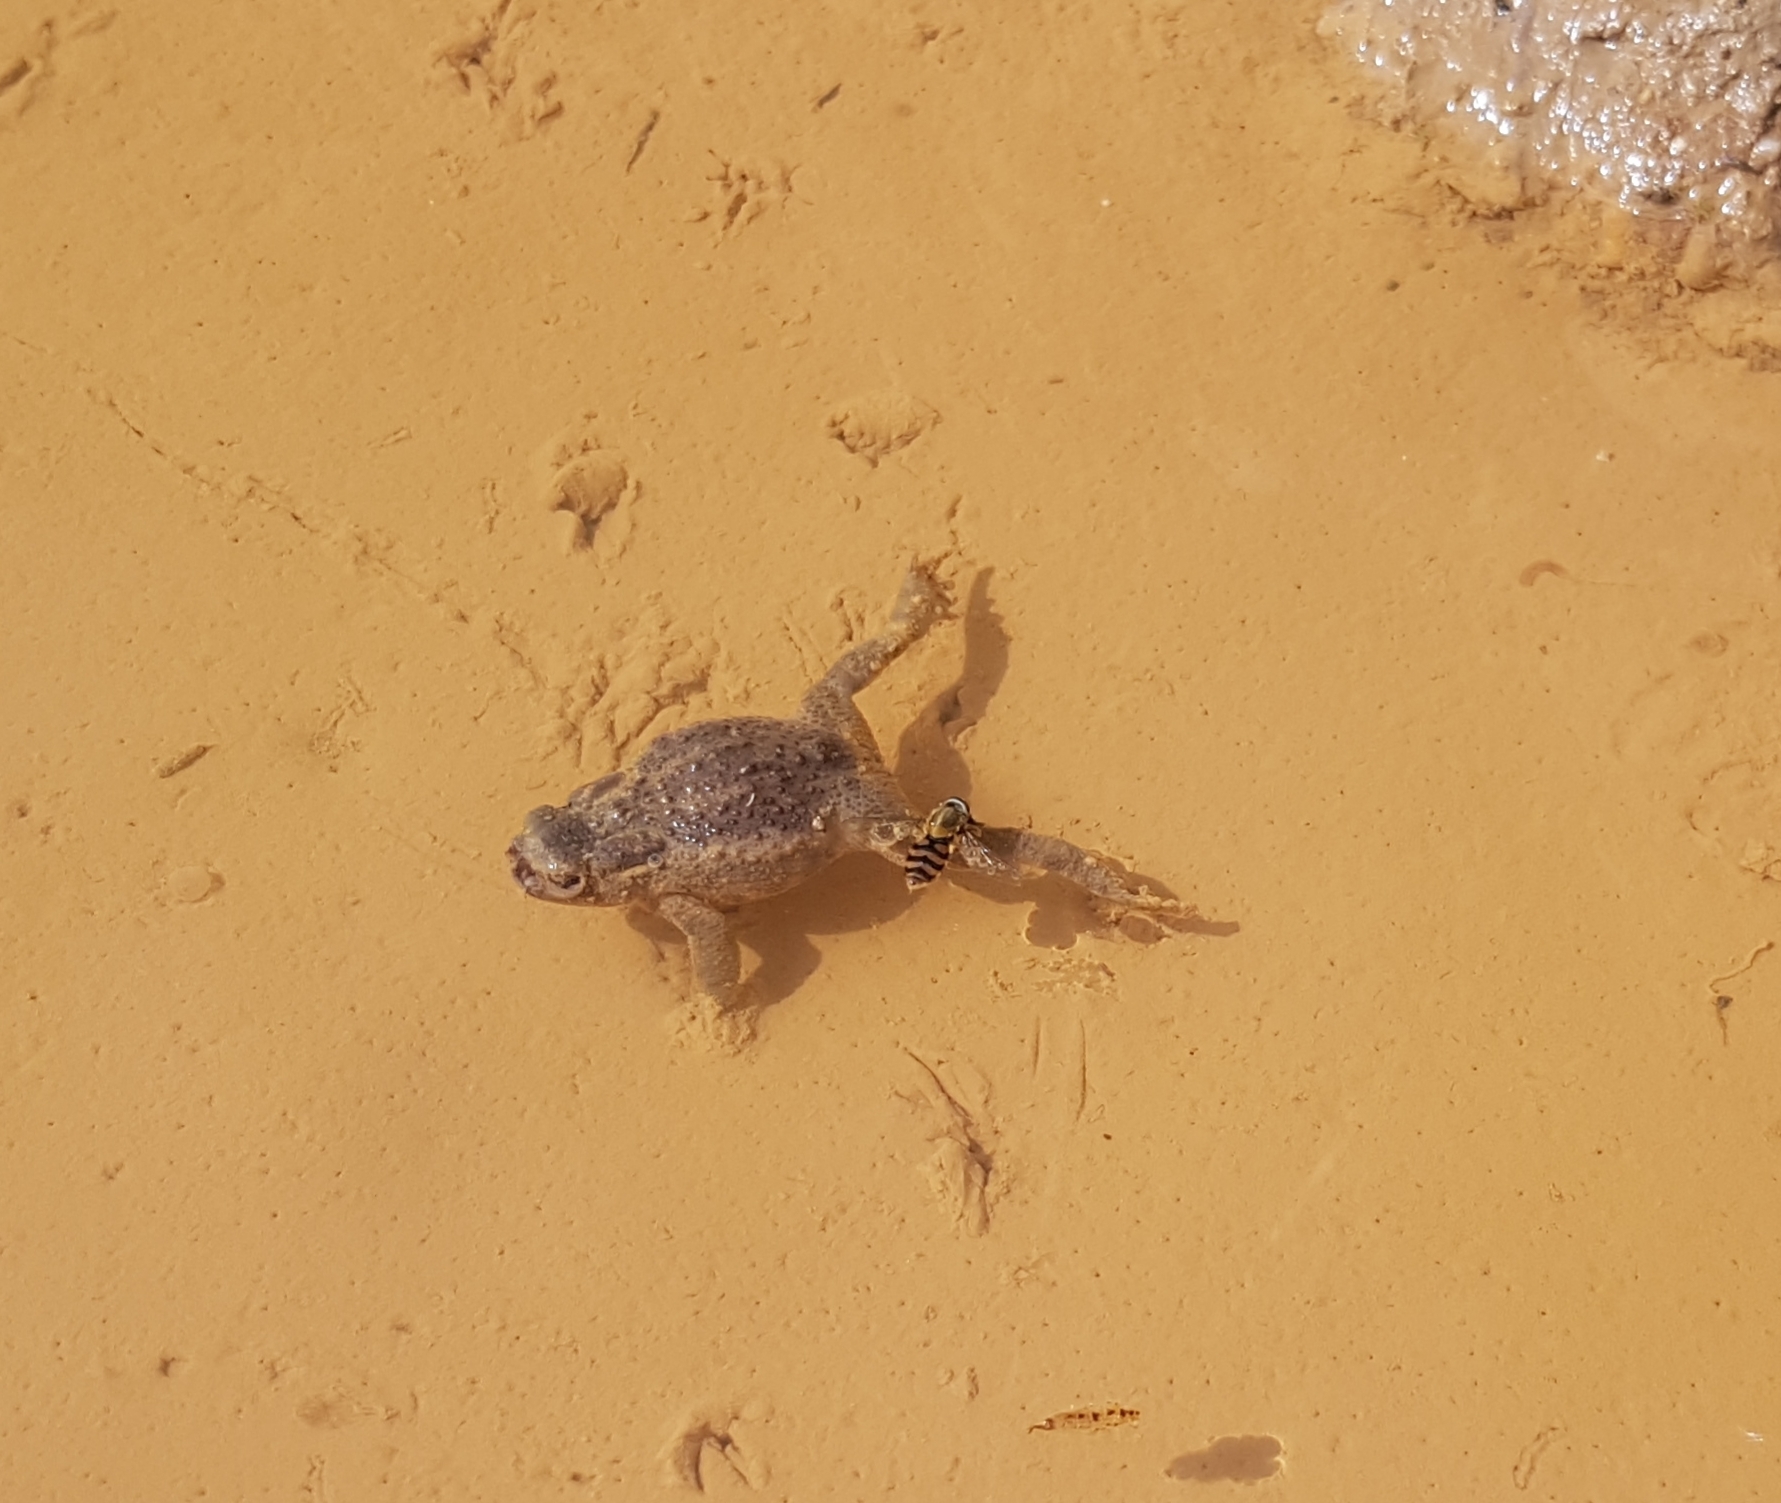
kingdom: Animalia
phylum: Arthropoda
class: Insecta
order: Diptera
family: Calliphoridae
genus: Lucilia
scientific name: Lucilia bufonivora
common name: Anuran parasite
